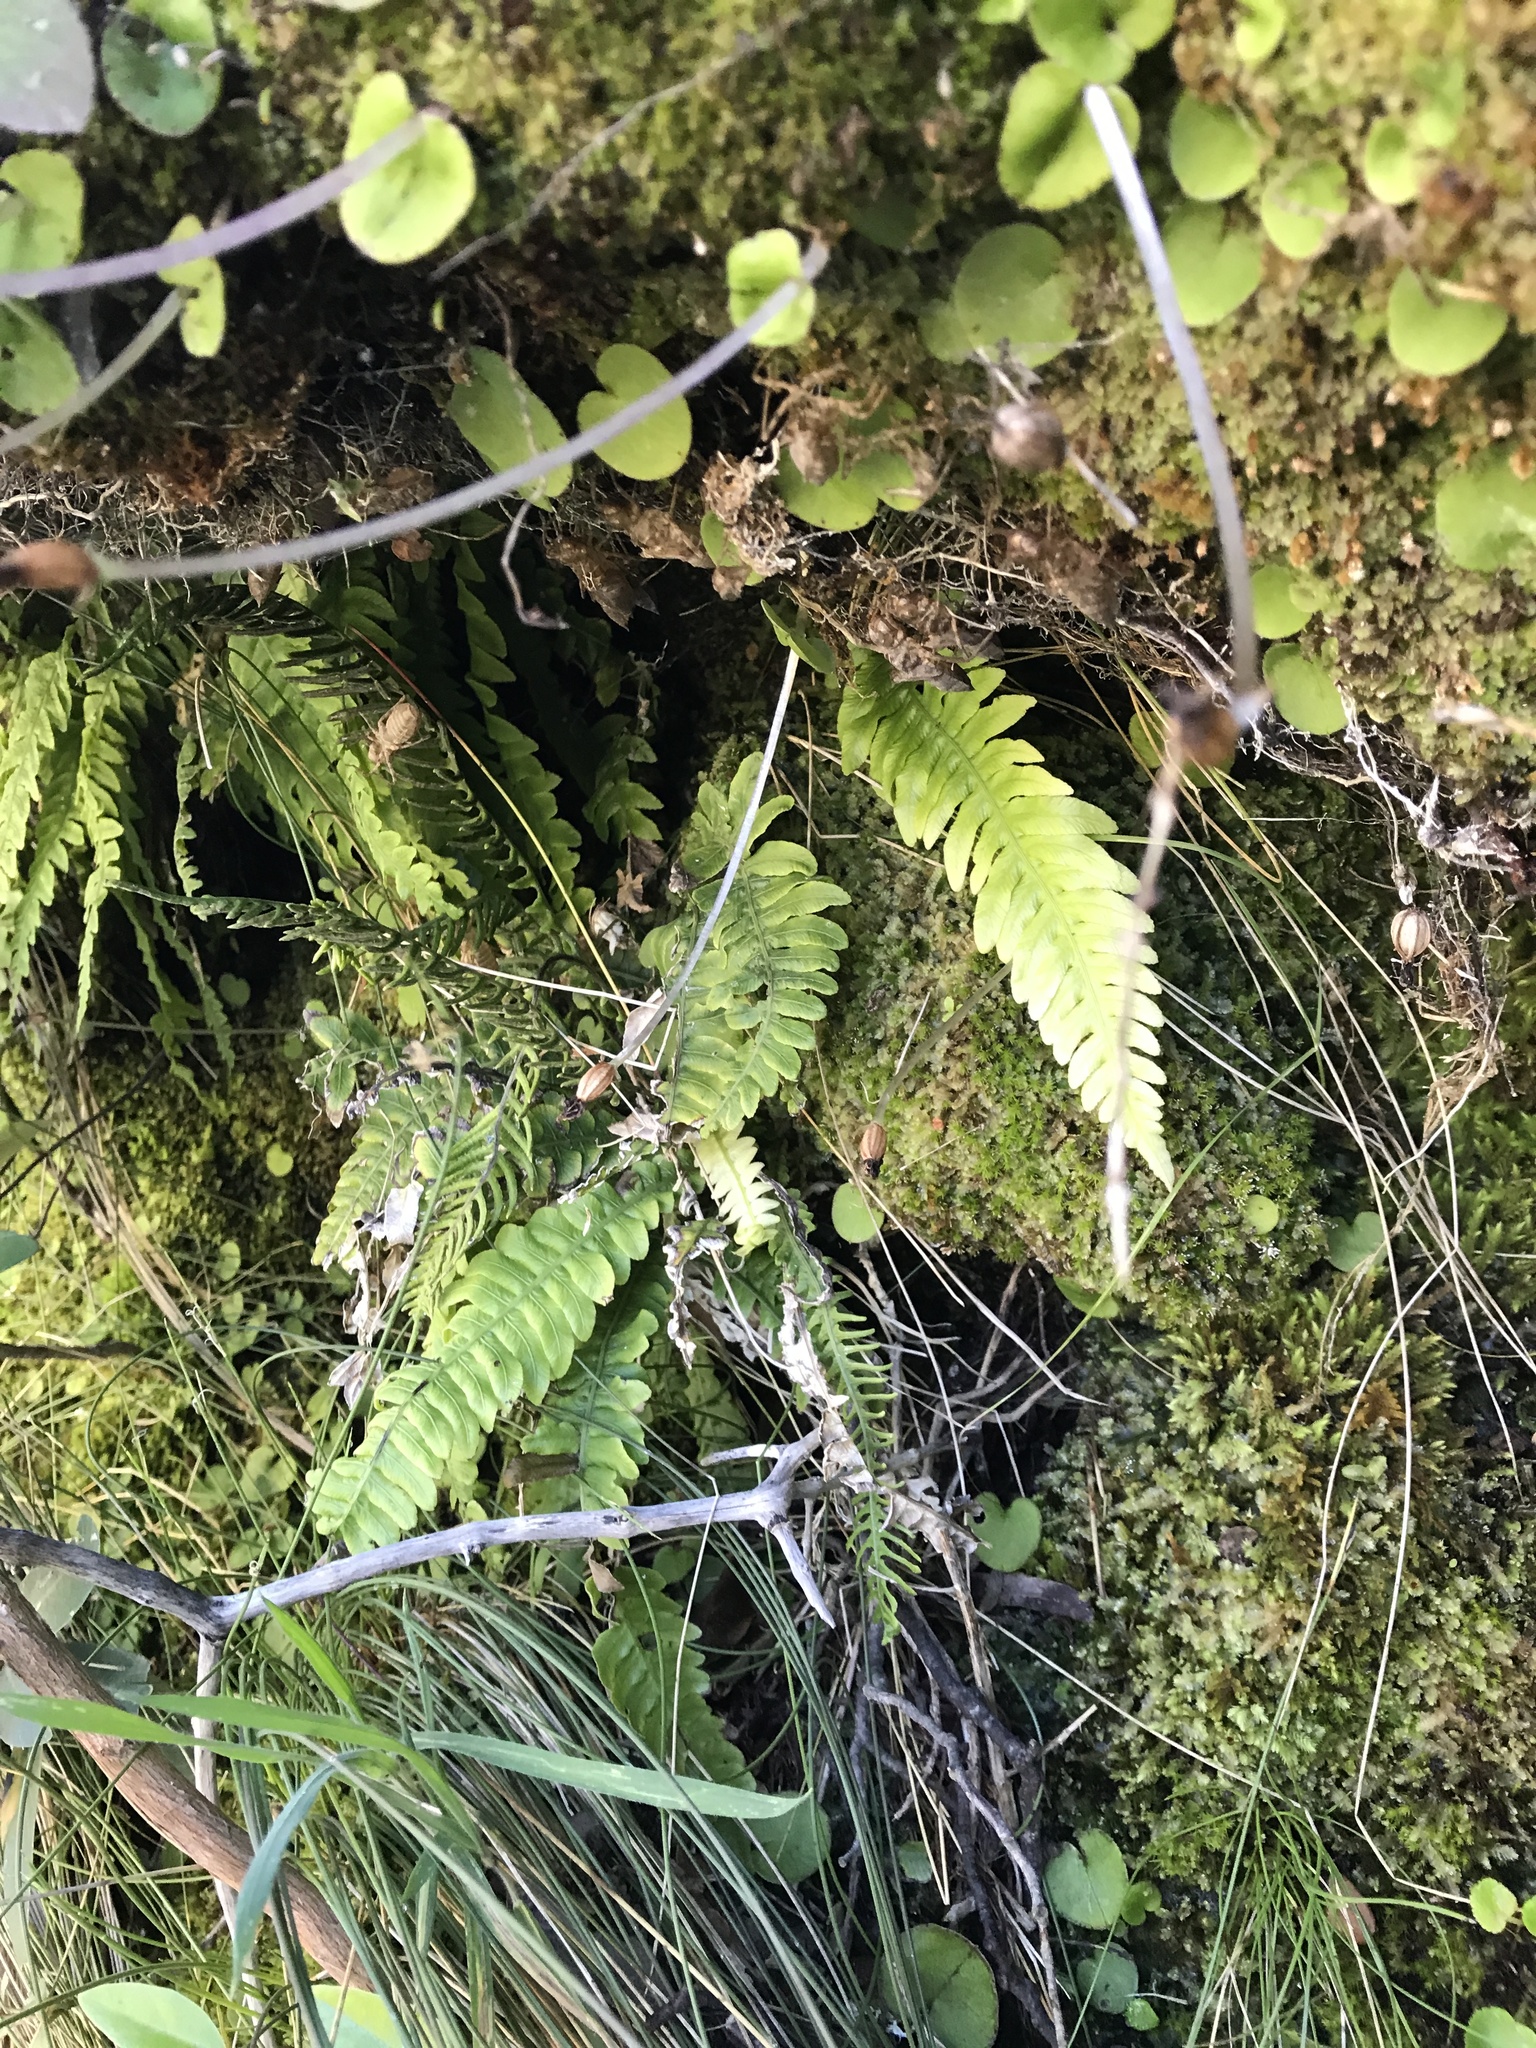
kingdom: Plantae
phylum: Tracheophyta
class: Polypodiopsida
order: Polypodiales
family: Blechnaceae
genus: Austroblechnum
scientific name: Austroblechnum lanceolatum
